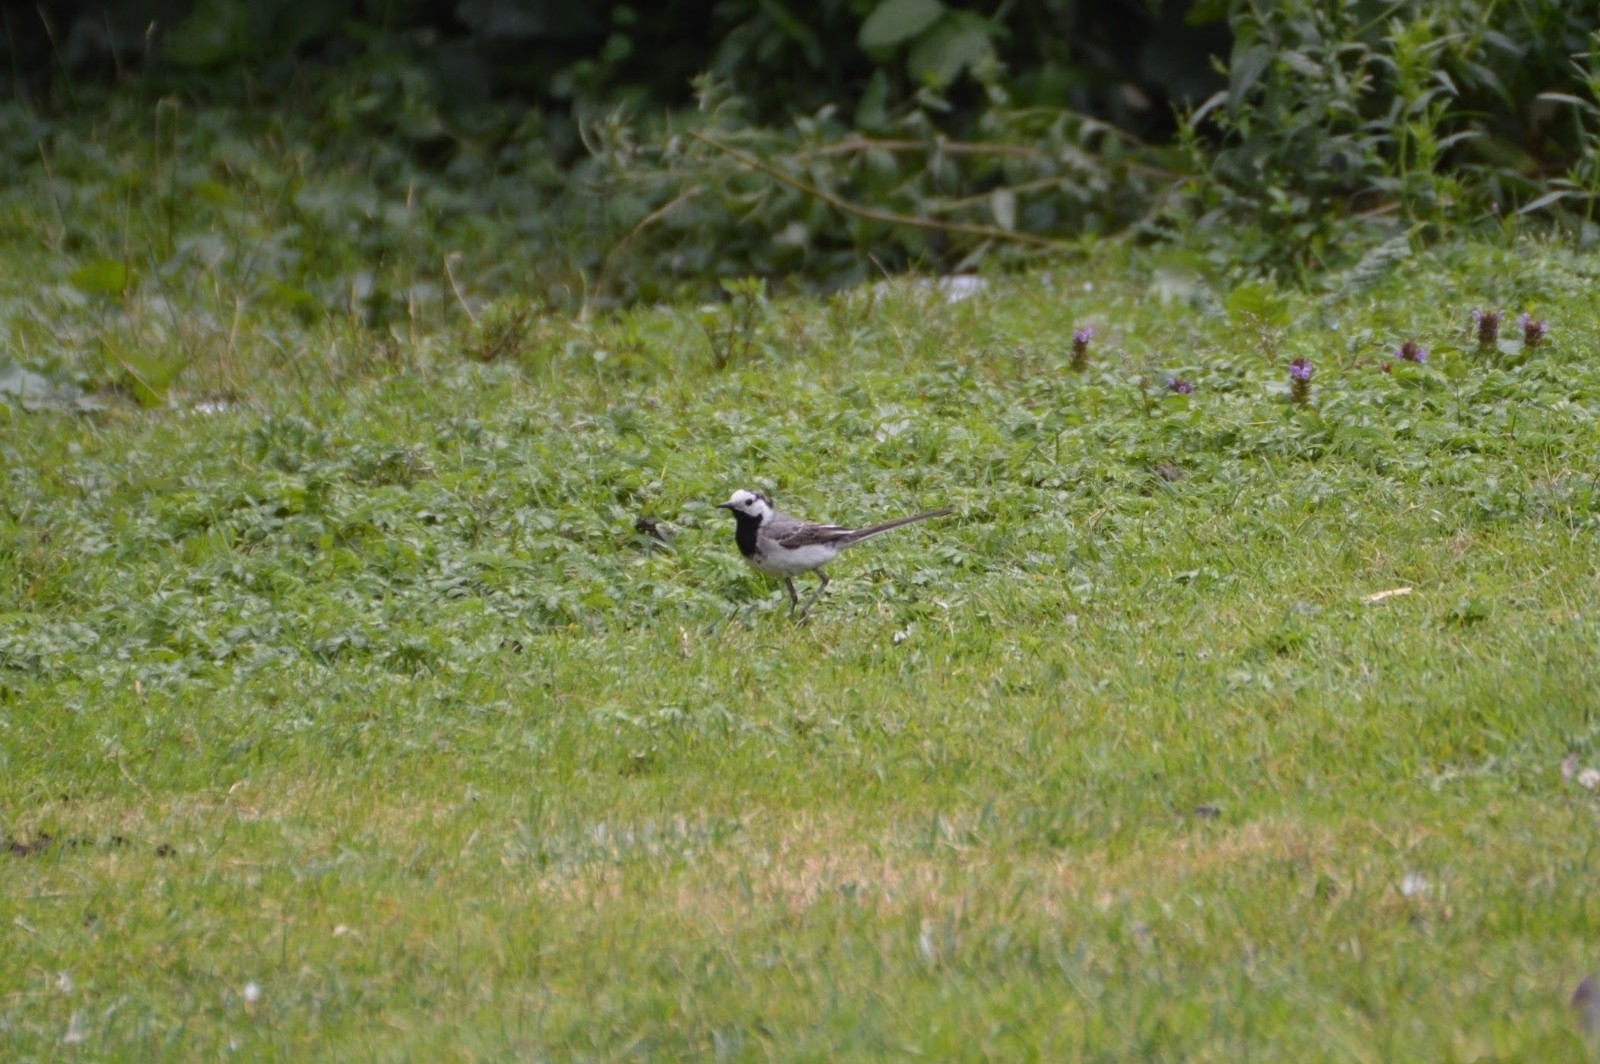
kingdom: Animalia
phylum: Chordata
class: Aves
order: Passeriformes
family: Motacillidae
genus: Motacilla
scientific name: Motacilla alba
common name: White wagtail
